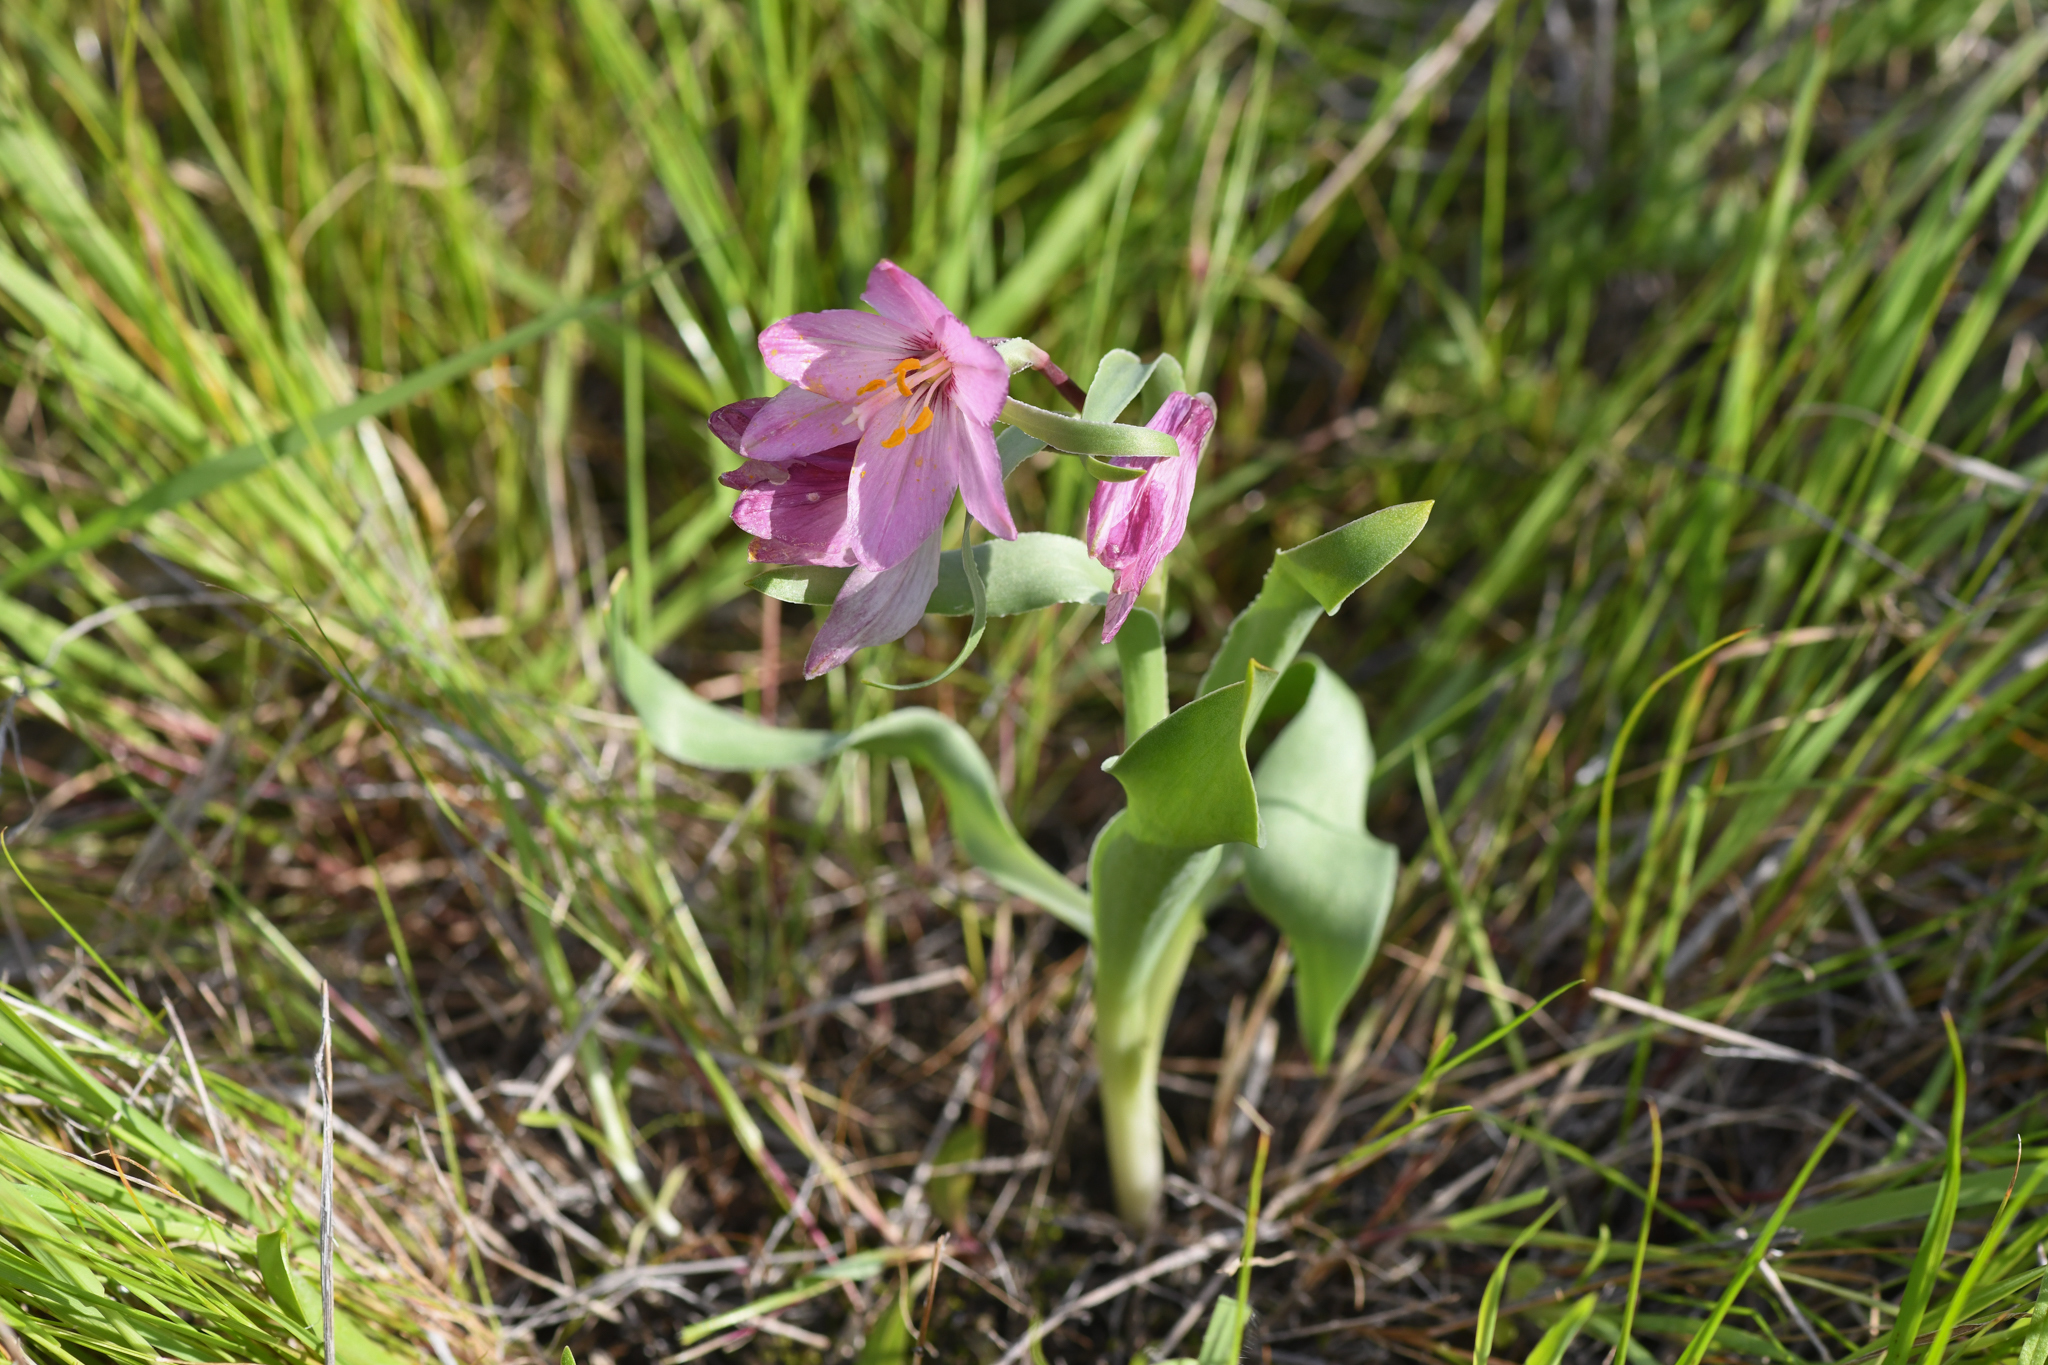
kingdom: Plantae
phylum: Tracheophyta
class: Liliopsida
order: Liliales
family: Liliaceae
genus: Fritillaria
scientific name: Fritillaria pluriflora
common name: Adobe-lily
